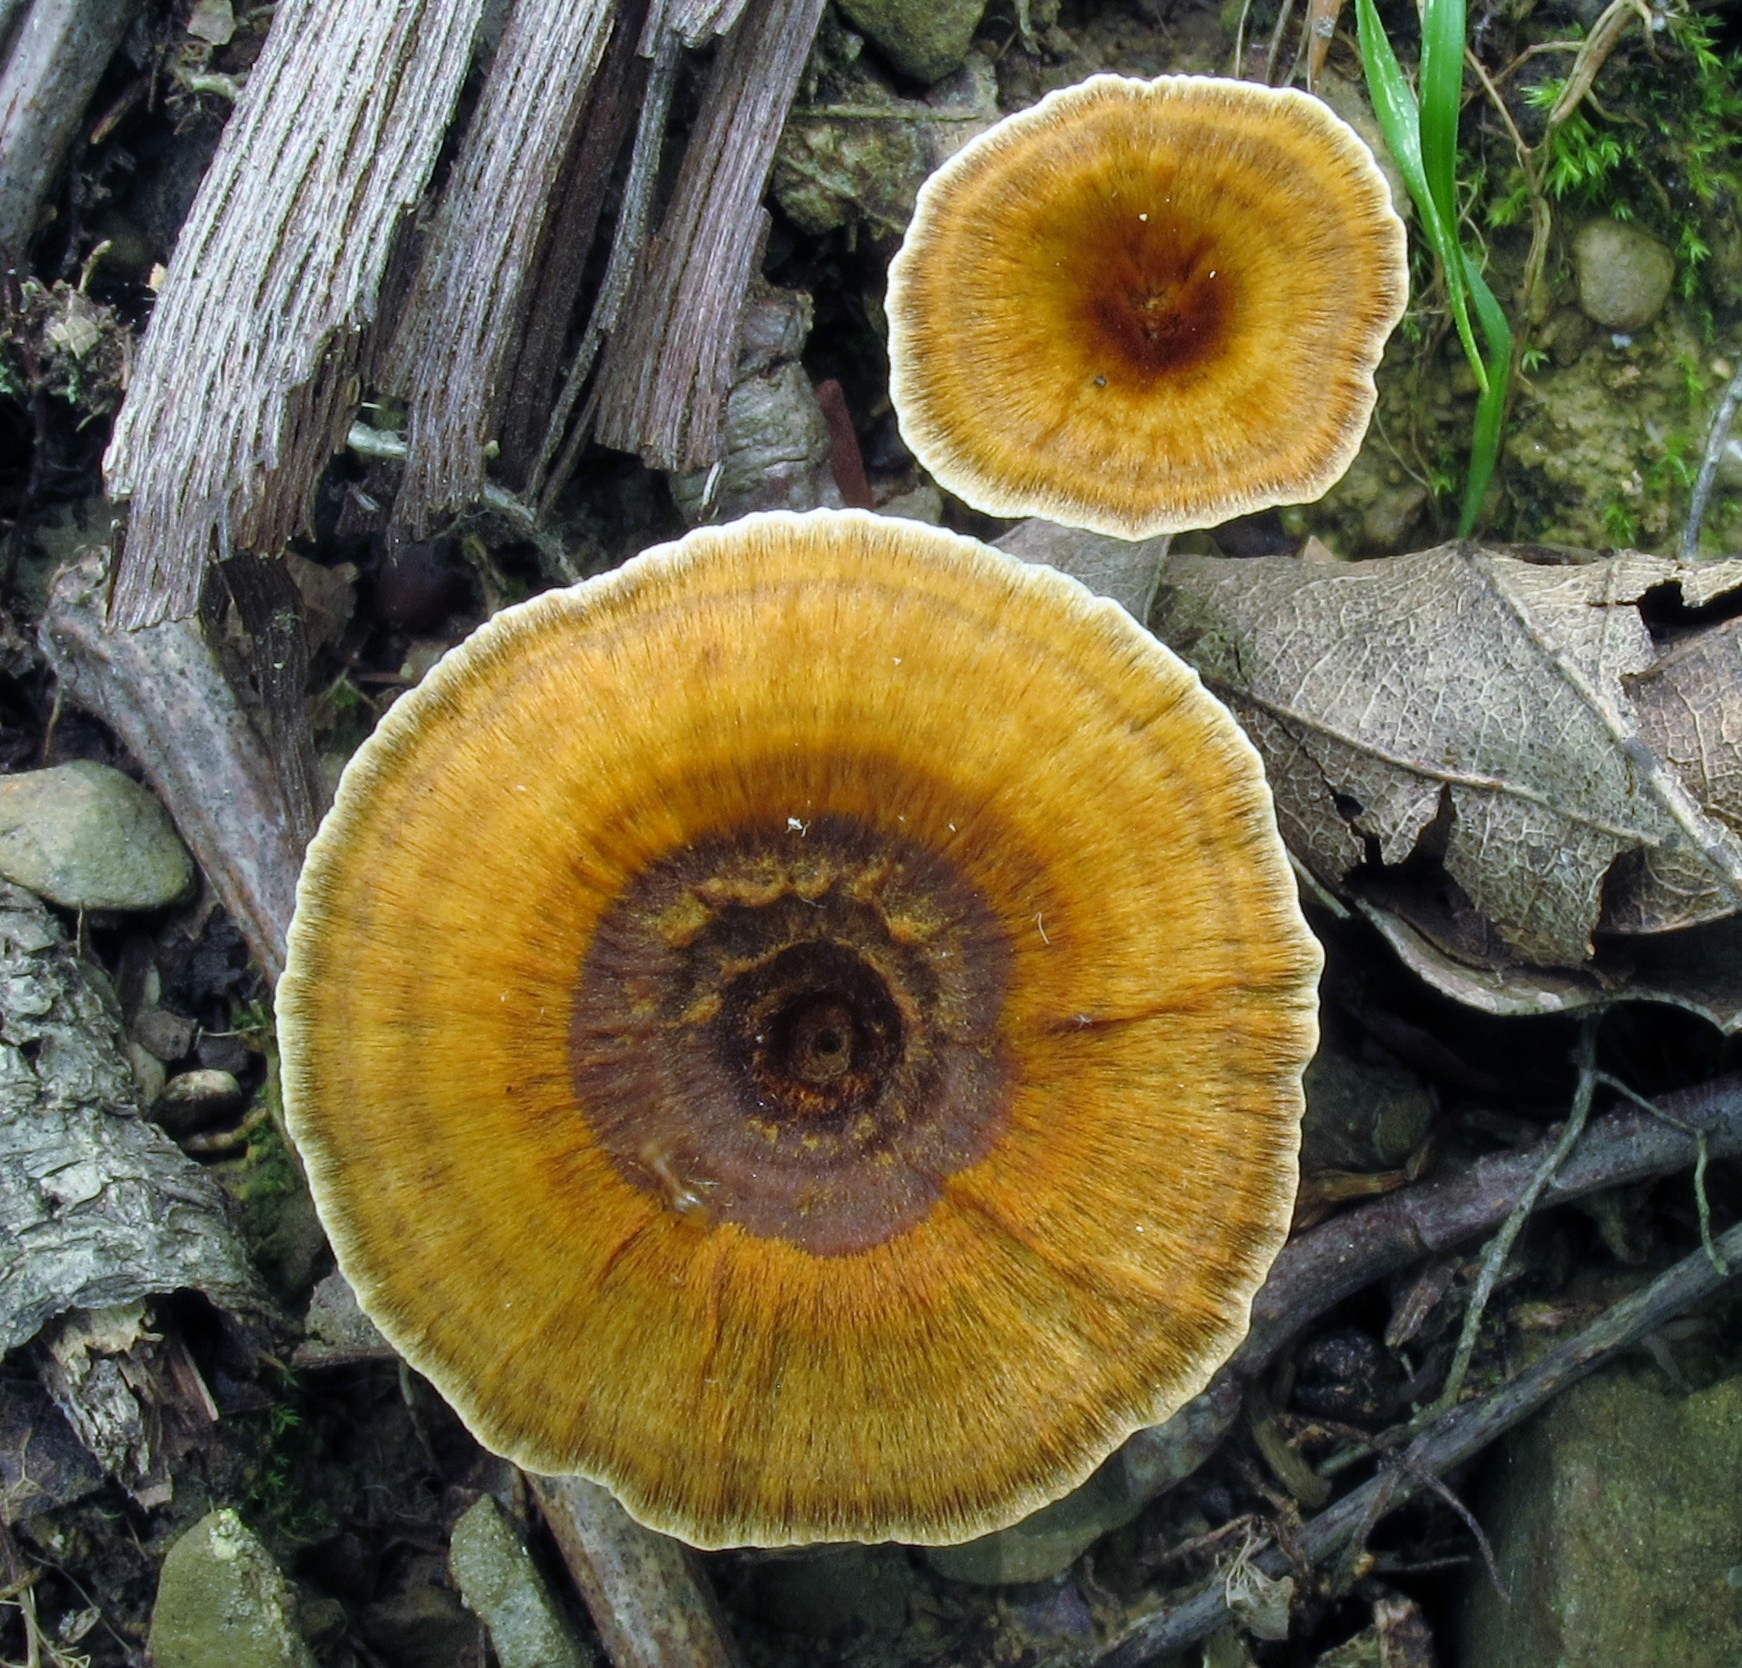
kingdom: Fungi
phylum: Basidiomycota
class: Agaricomycetes
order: Hymenochaetales
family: Hymenochaetaceae
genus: Coltricia
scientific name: Coltricia cinnamomea
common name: Shiny cinnamon polypore
